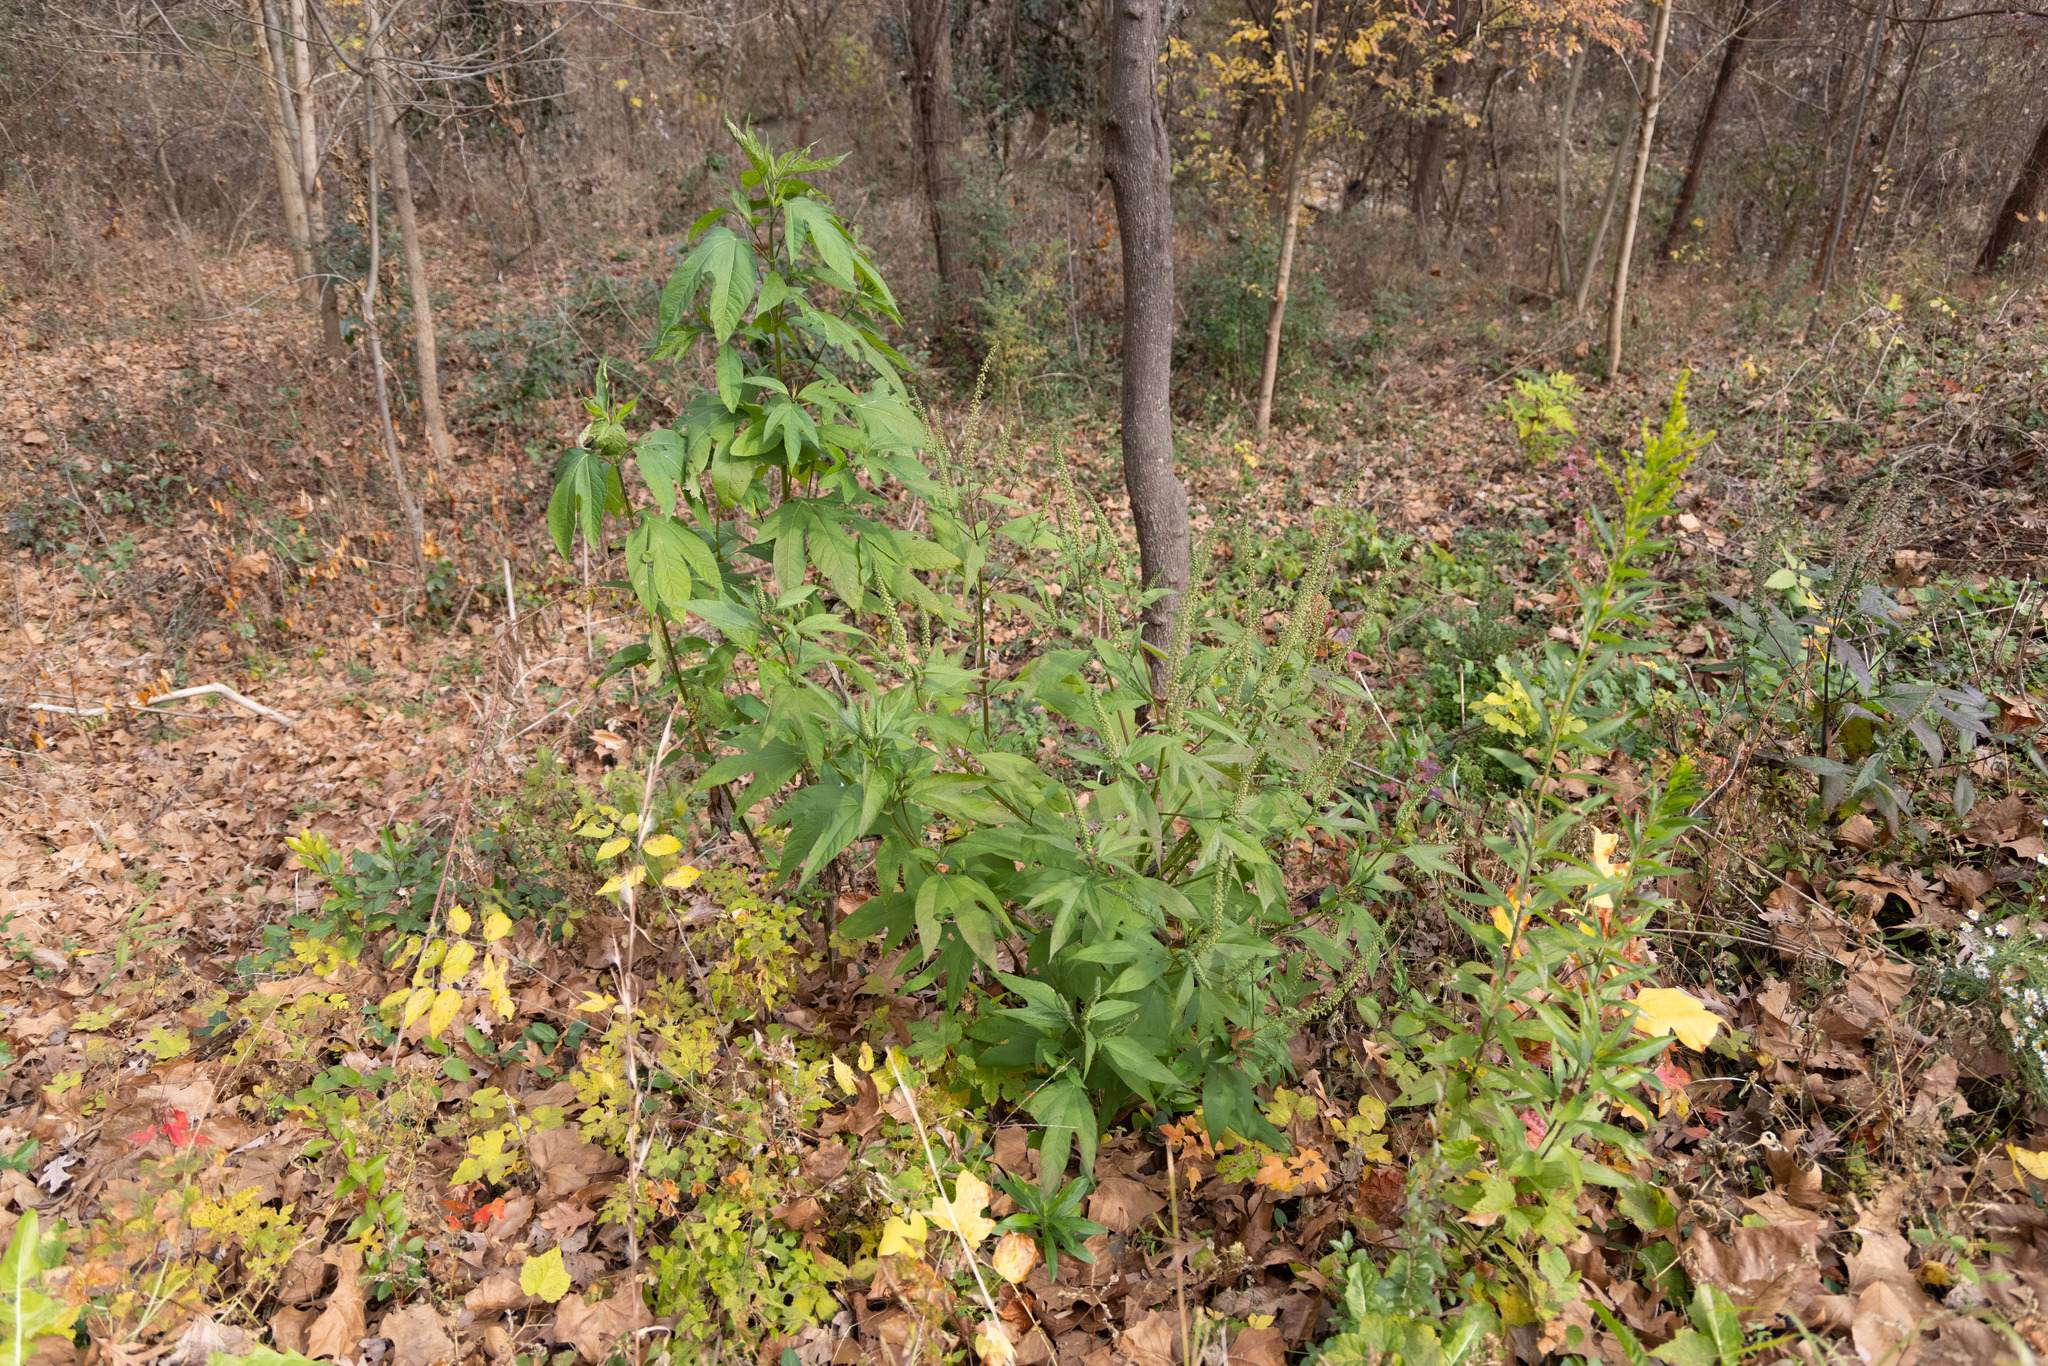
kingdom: Plantae
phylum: Tracheophyta
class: Magnoliopsida
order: Asterales
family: Asteraceae
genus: Ambrosia
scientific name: Ambrosia trifida
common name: Giant ragweed
